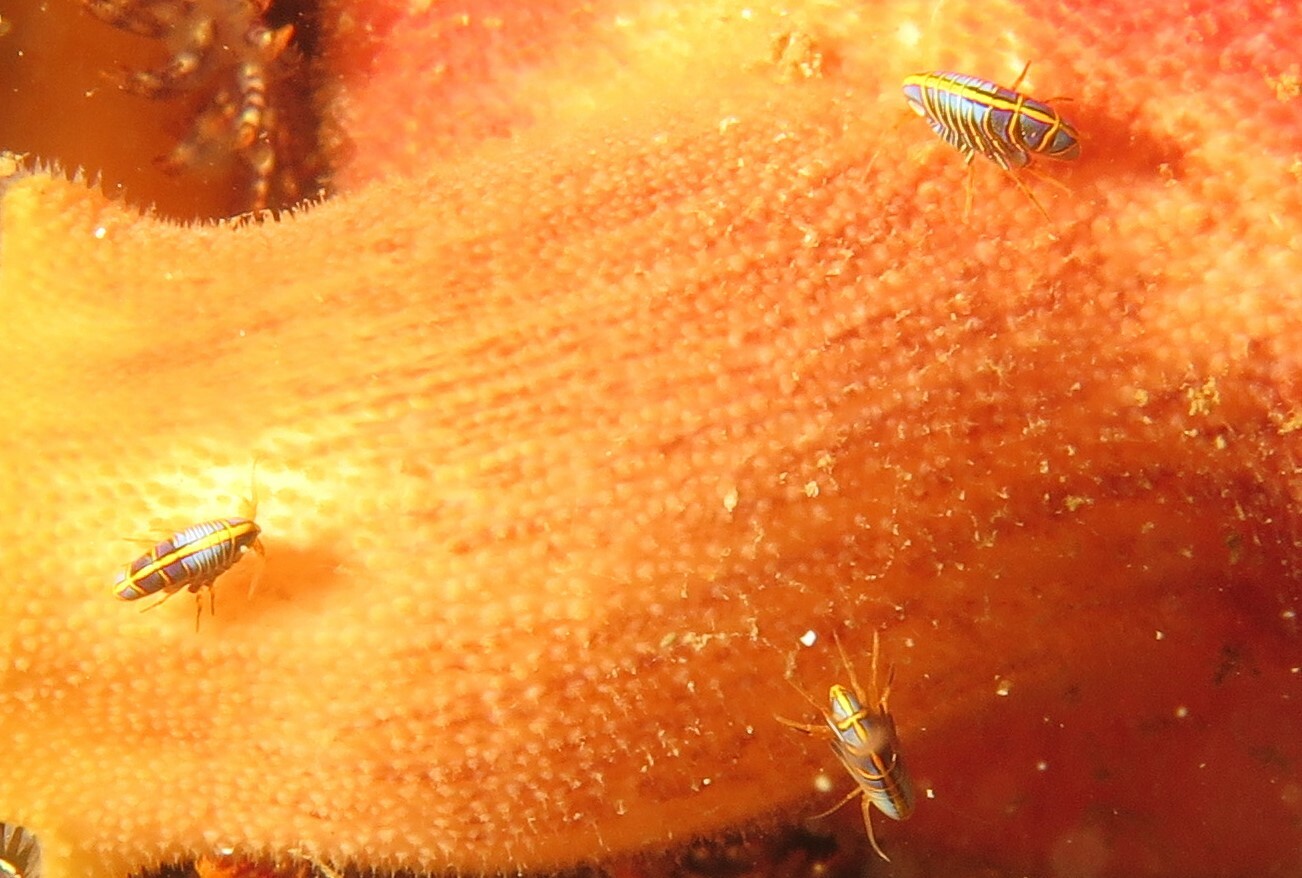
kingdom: Animalia
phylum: Arthropoda
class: Malacostraca
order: Amphipoda
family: Iphimediidae
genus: Iphimedia
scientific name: Iphimedia gibba
